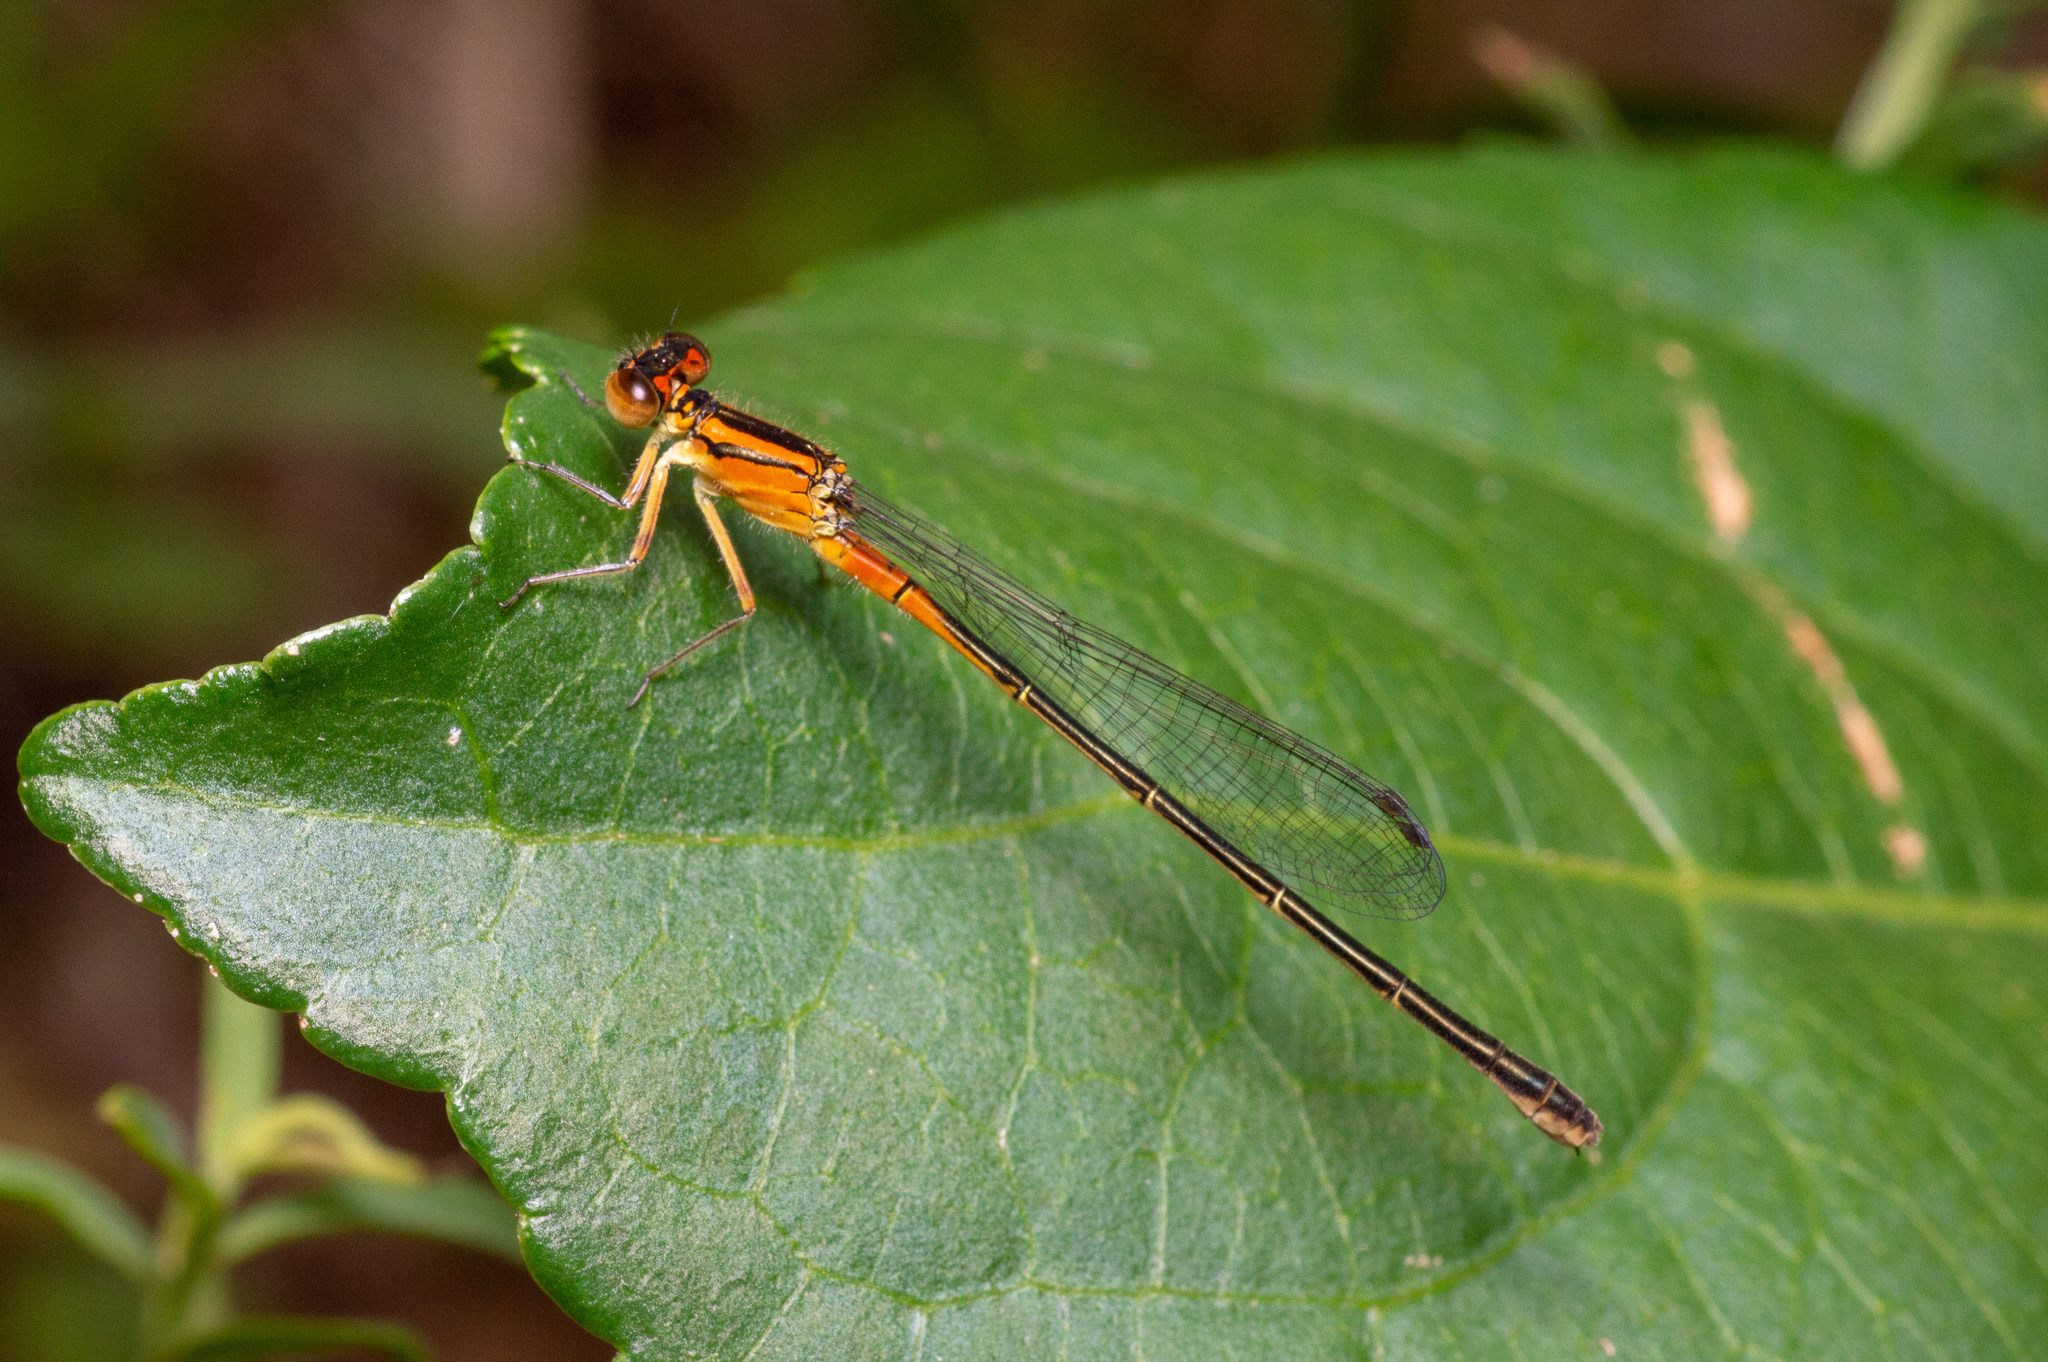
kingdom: Animalia
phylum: Arthropoda
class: Insecta
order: Odonata
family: Coenagrionidae
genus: Ischnura
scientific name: Ischnura verticalis
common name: Eastern forktail
